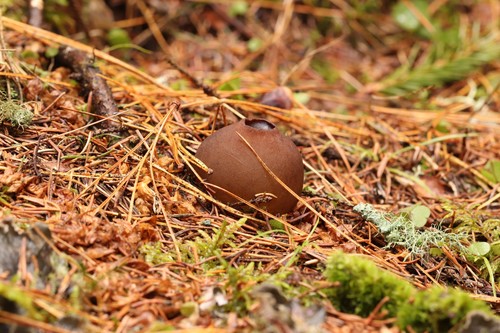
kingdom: Fungi
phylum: Ascomycota
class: Pezizomycetes
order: Pezizales
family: Sarcosomataceae
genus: Sarcosoma
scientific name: Sarcosoma globosum
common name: Charred-pancake cup
